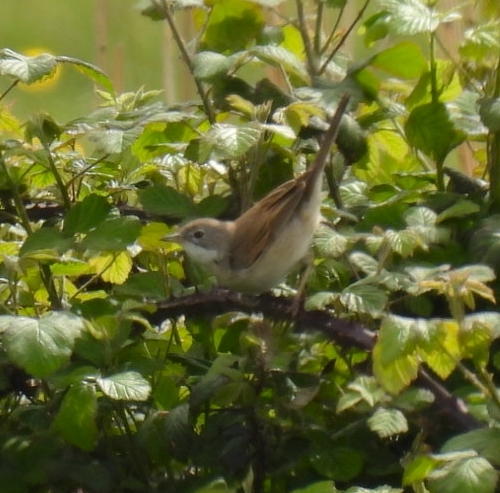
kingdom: Animalia
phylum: Chordata
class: Aves
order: Passeriformes
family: Sylviidae
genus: Sylvia
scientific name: Sylvia communis
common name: Common whitethroat
